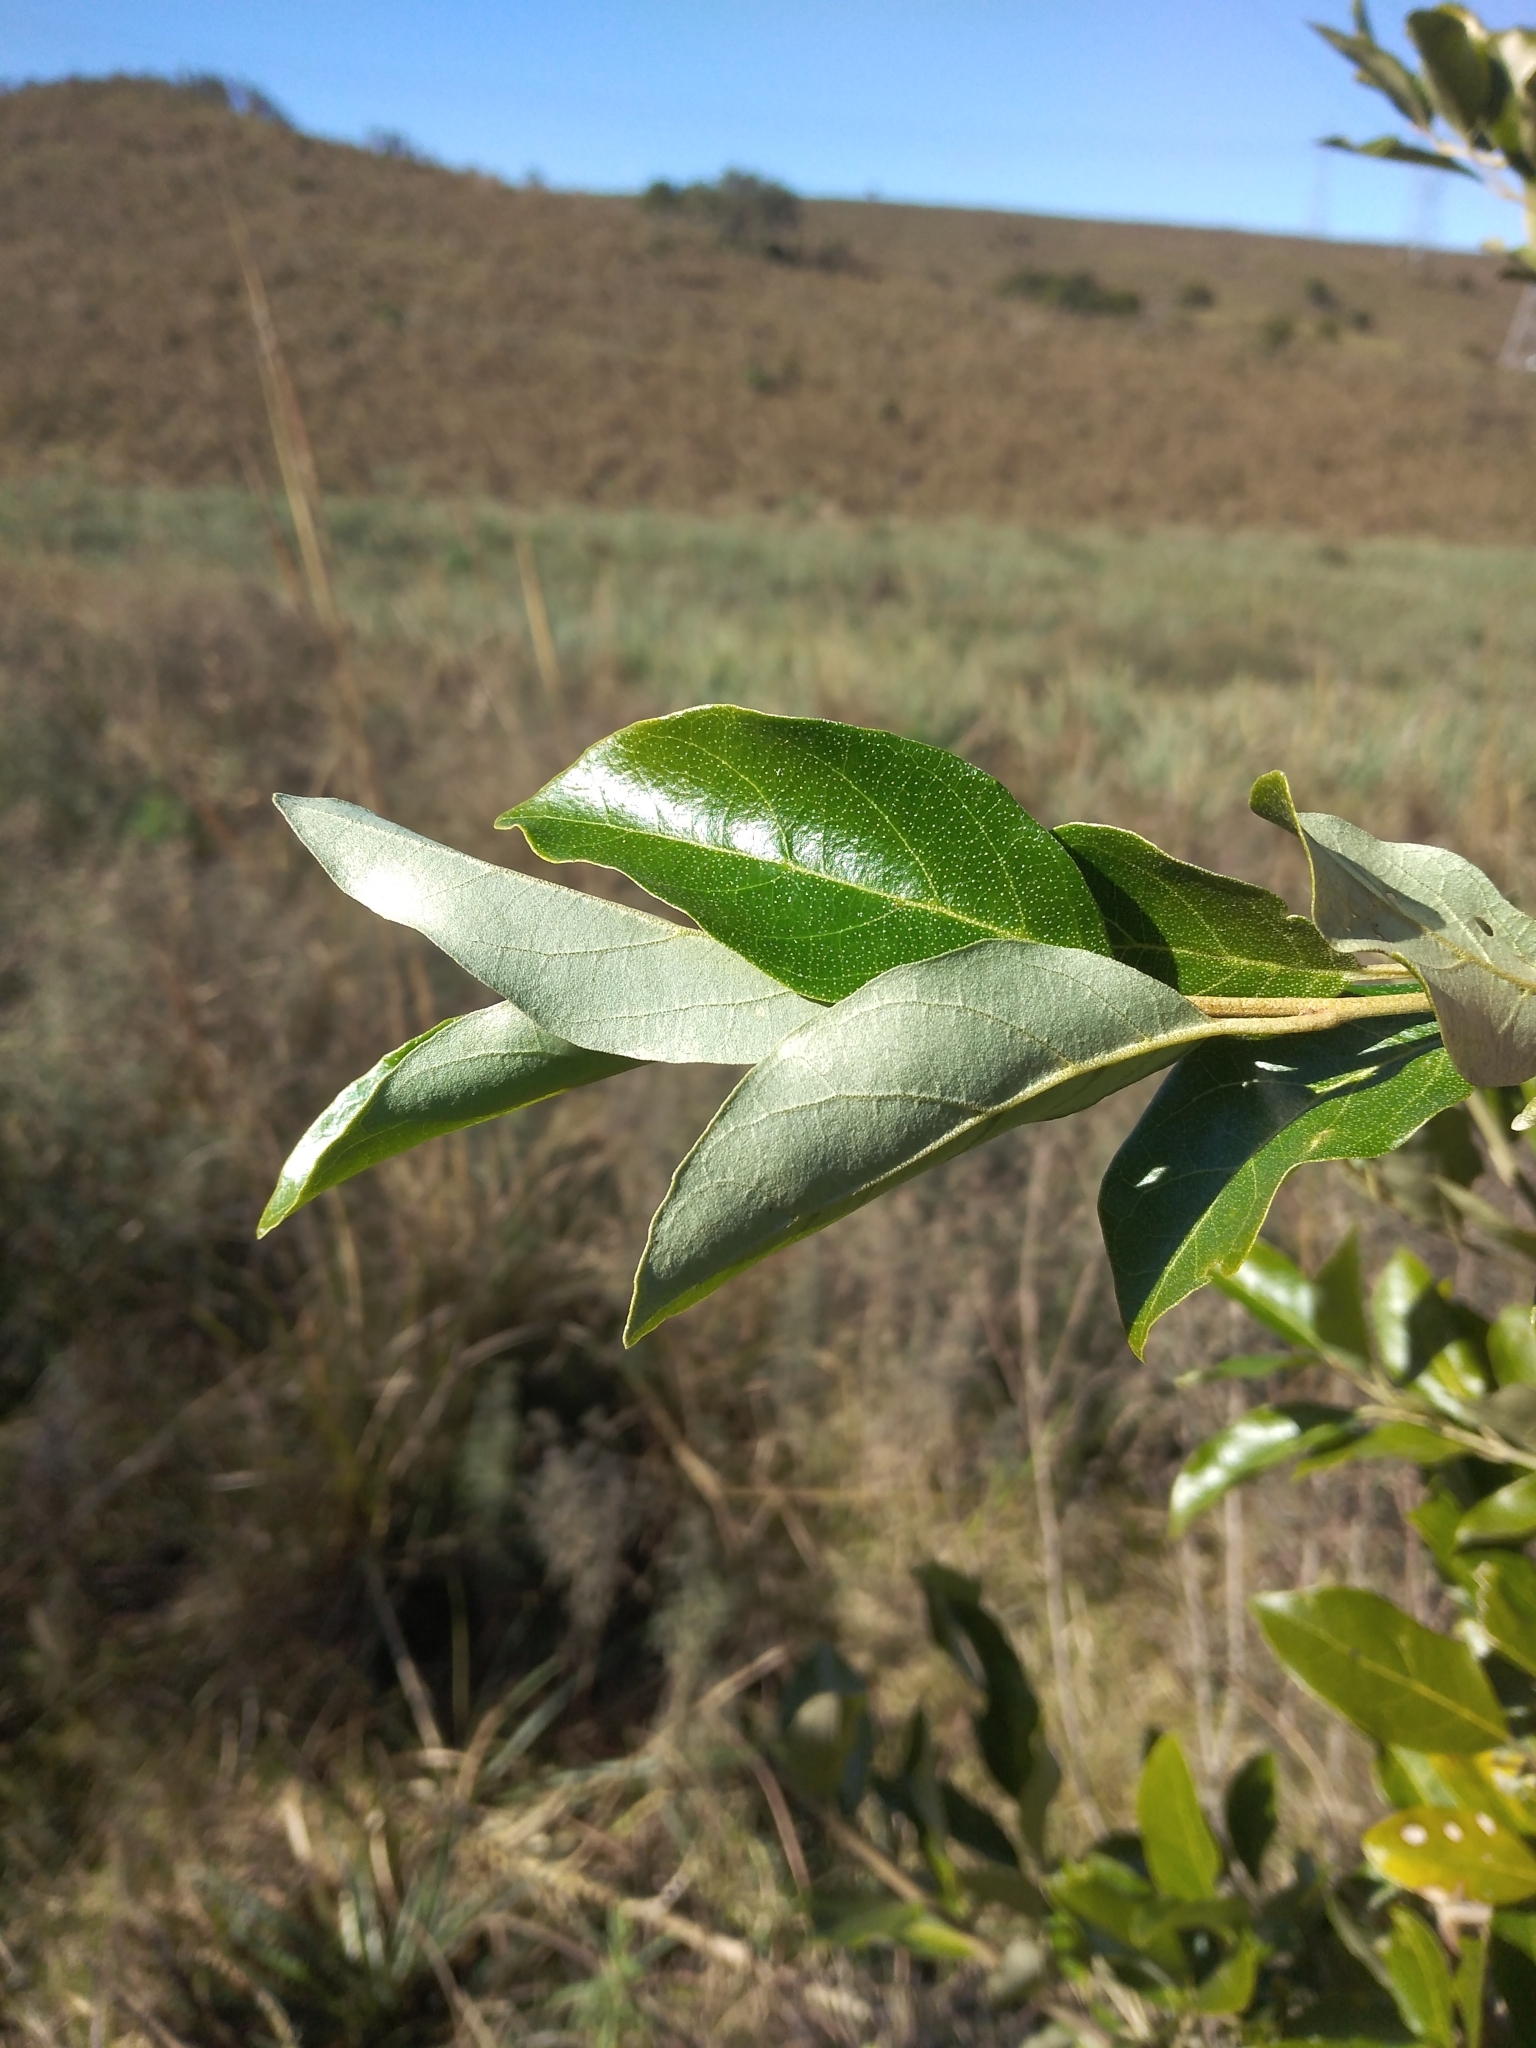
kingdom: Plantae
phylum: Tracheophyta
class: Magnoliopsida
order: Ericales
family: Styracaceae
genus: Styrax
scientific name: Styrax leprosus
